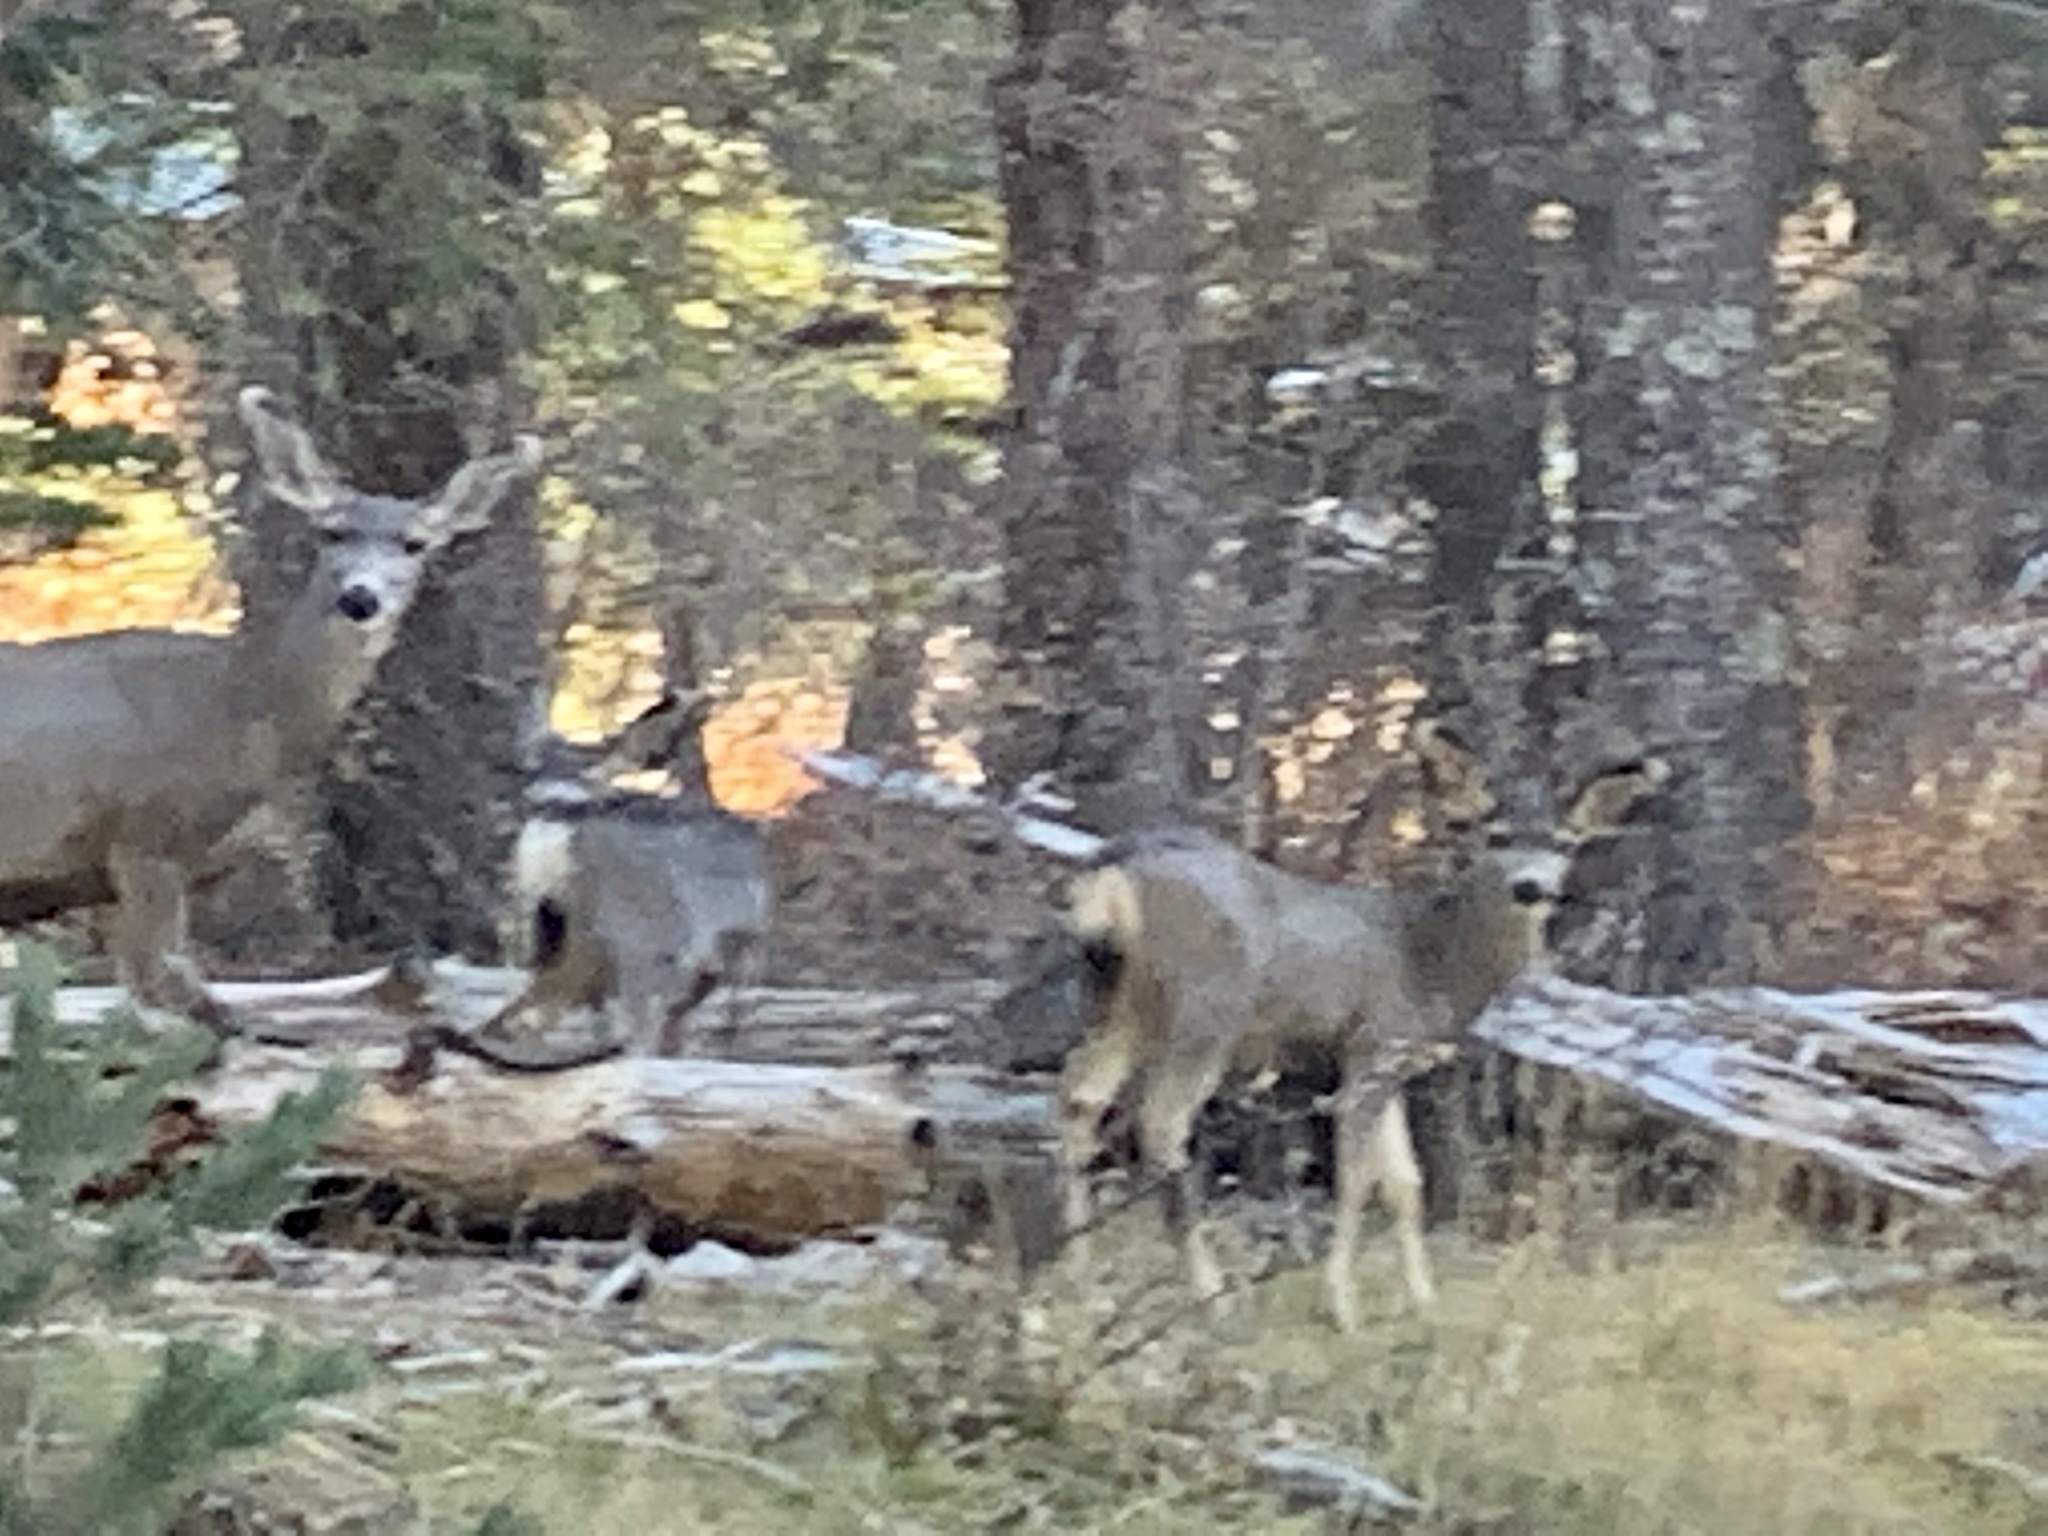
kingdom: Animalia
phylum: Chordata
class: Mammalia
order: Artiodactyla
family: Cervidae
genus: Odocoileus
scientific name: Odocoileus hemionus
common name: Mule deer
